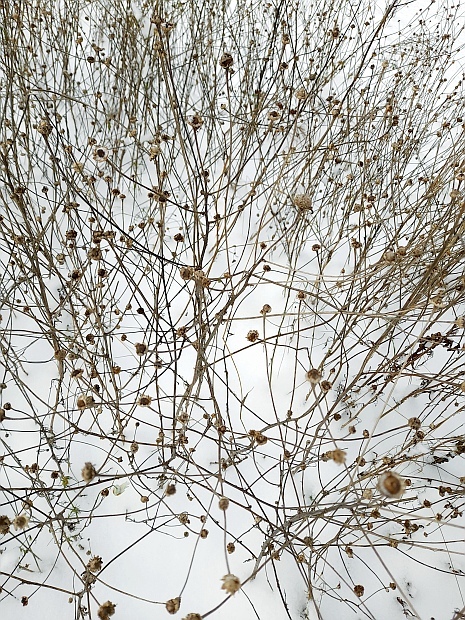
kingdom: Plantae
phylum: Tracheophyta
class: Magnoliopsida
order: Asterales
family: Asteraceae
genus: Tripleurospermum
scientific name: Tripleurospermum inodorum
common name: Scentless mayweed
